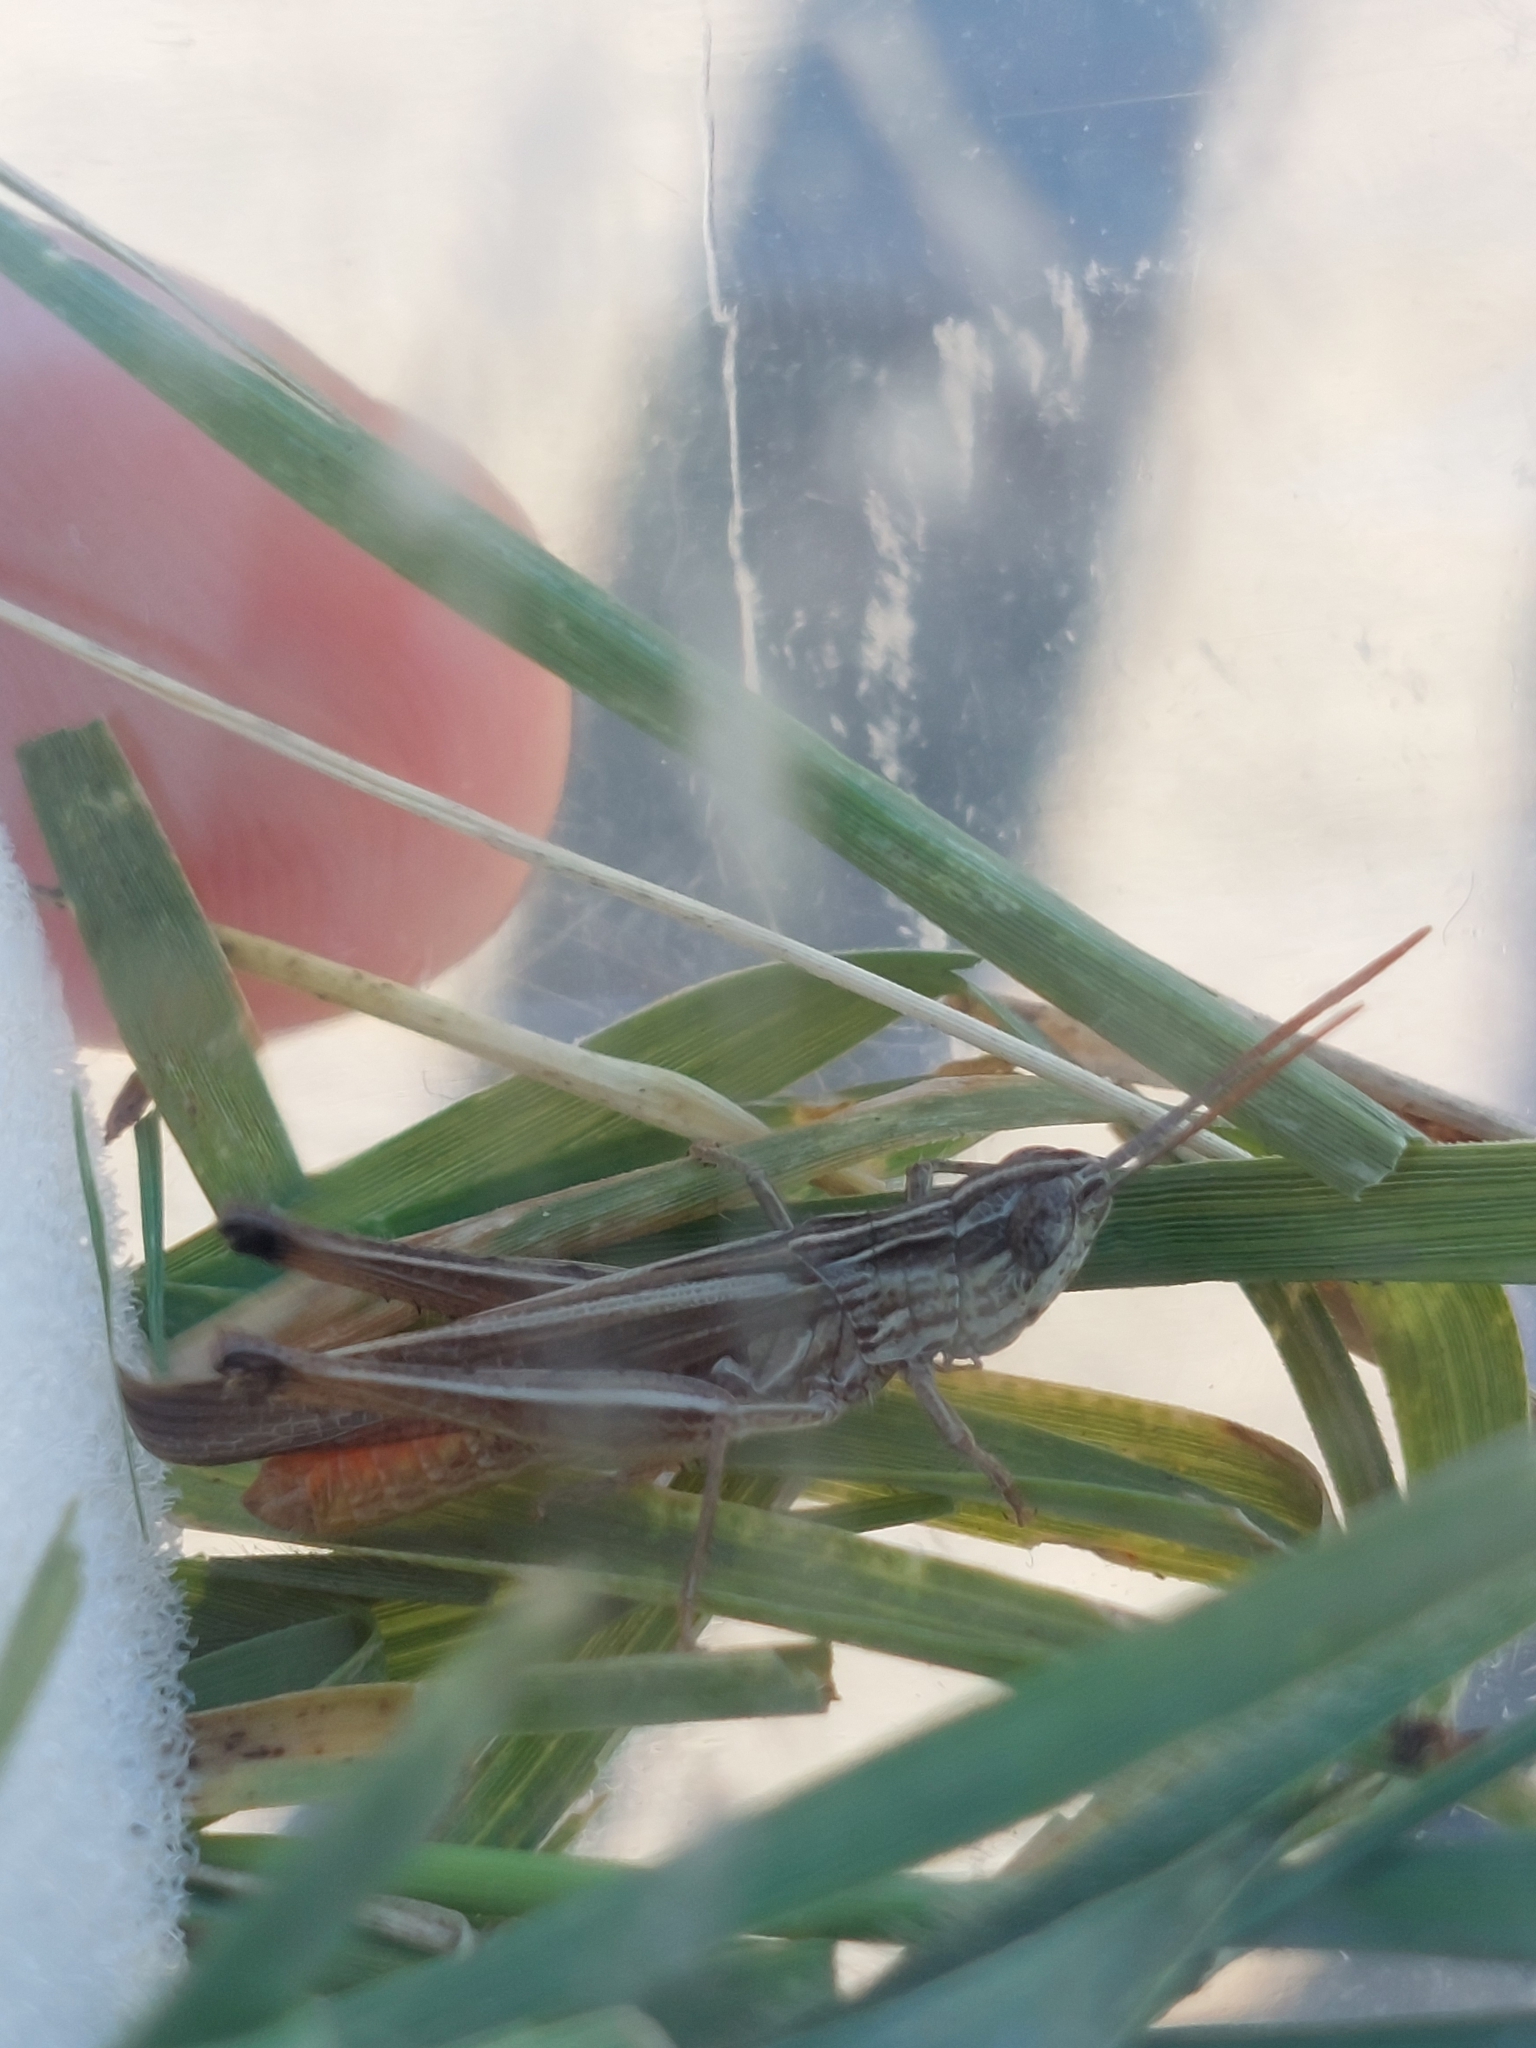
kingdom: Animalia
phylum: Arthropoda
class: Insecta
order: Orthoptera
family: Acrididae
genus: Chorthippus
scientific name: Chorthippus loratus
